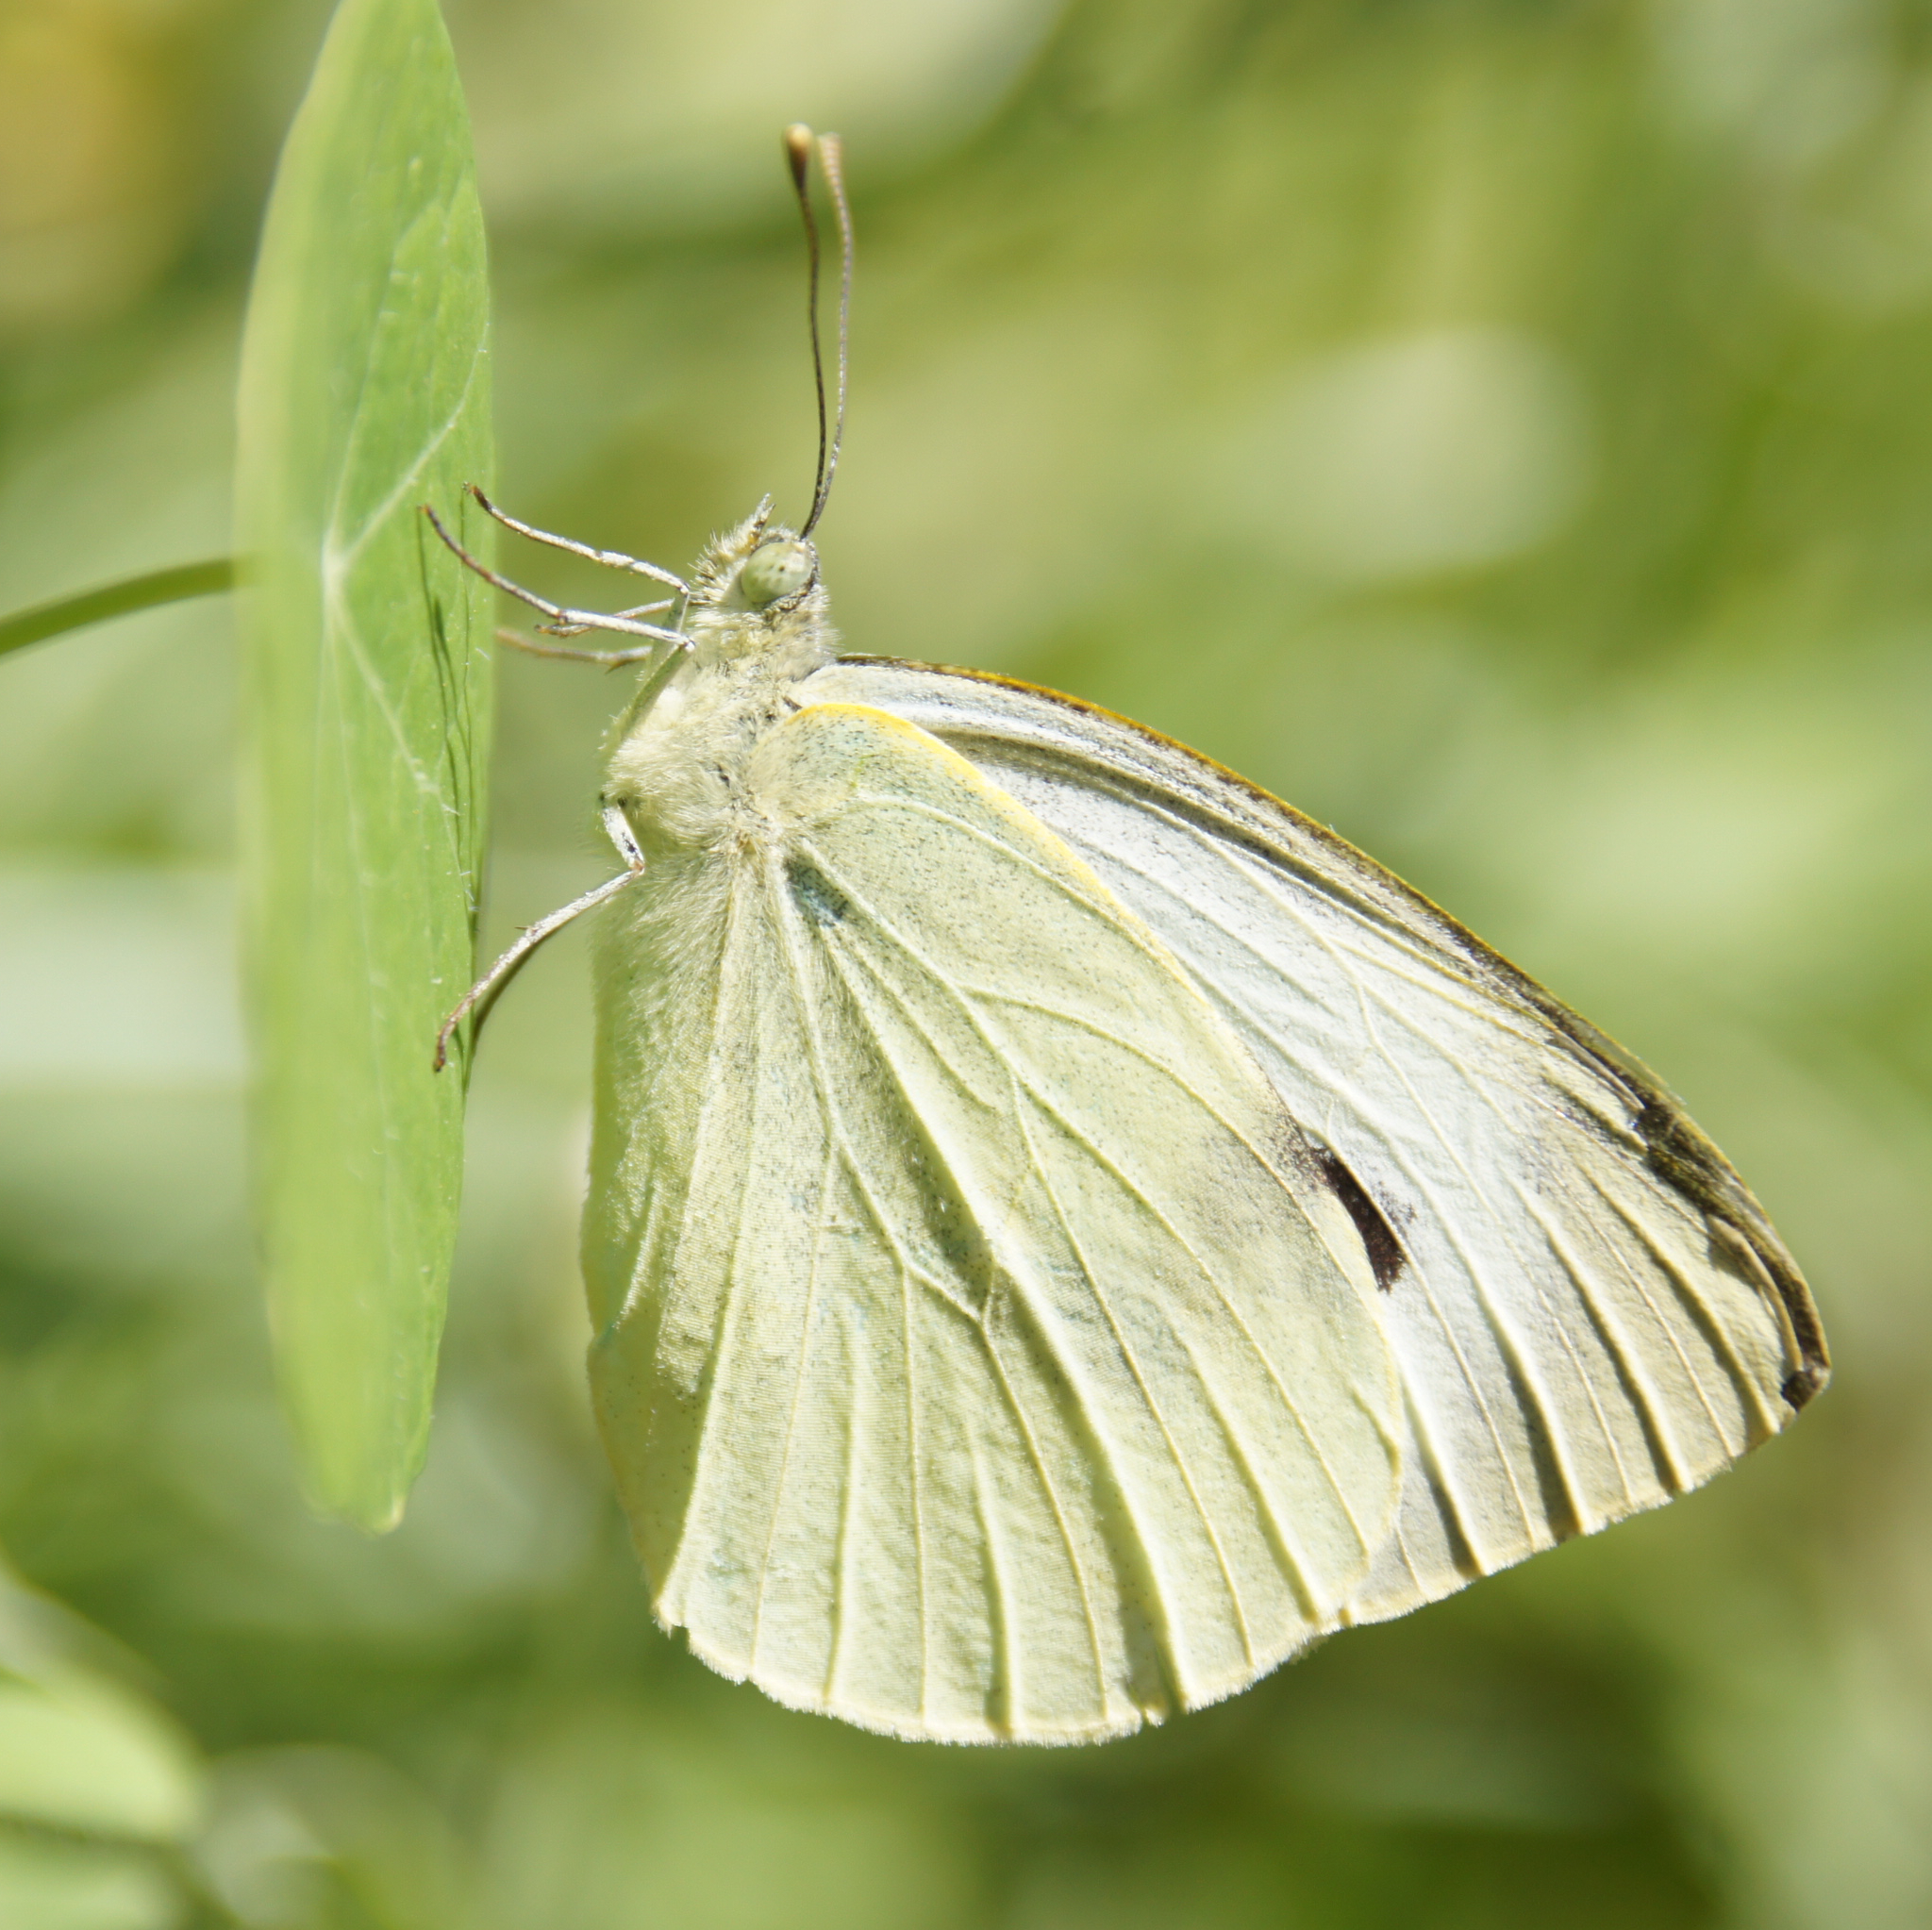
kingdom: Animalia
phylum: Arthropoda
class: Insecta
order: Lepidoptera
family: Pieridae
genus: Pieris
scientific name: Pieris brassicae
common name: Large white
